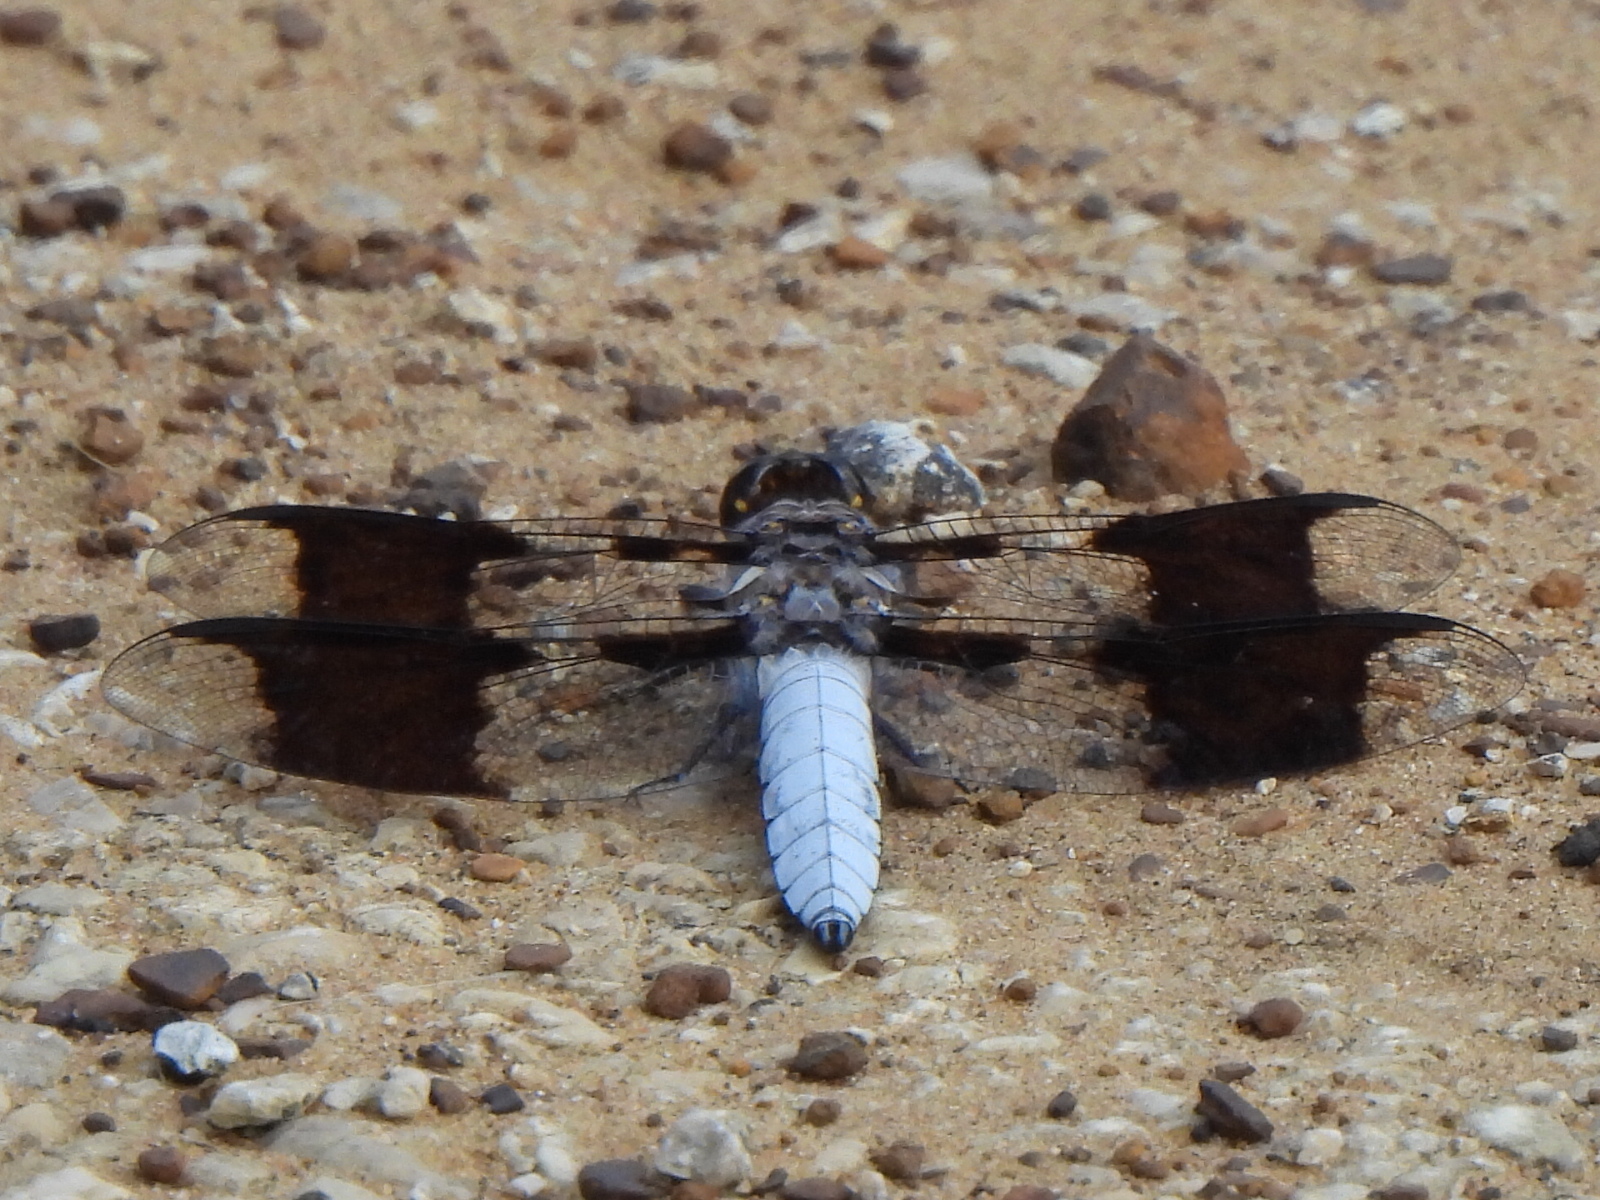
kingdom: Animalia
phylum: Arthropoda
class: Insecta
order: Odonata
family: Libellulidae
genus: Plathemis
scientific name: Plathemis lydia
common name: Common whitetail
